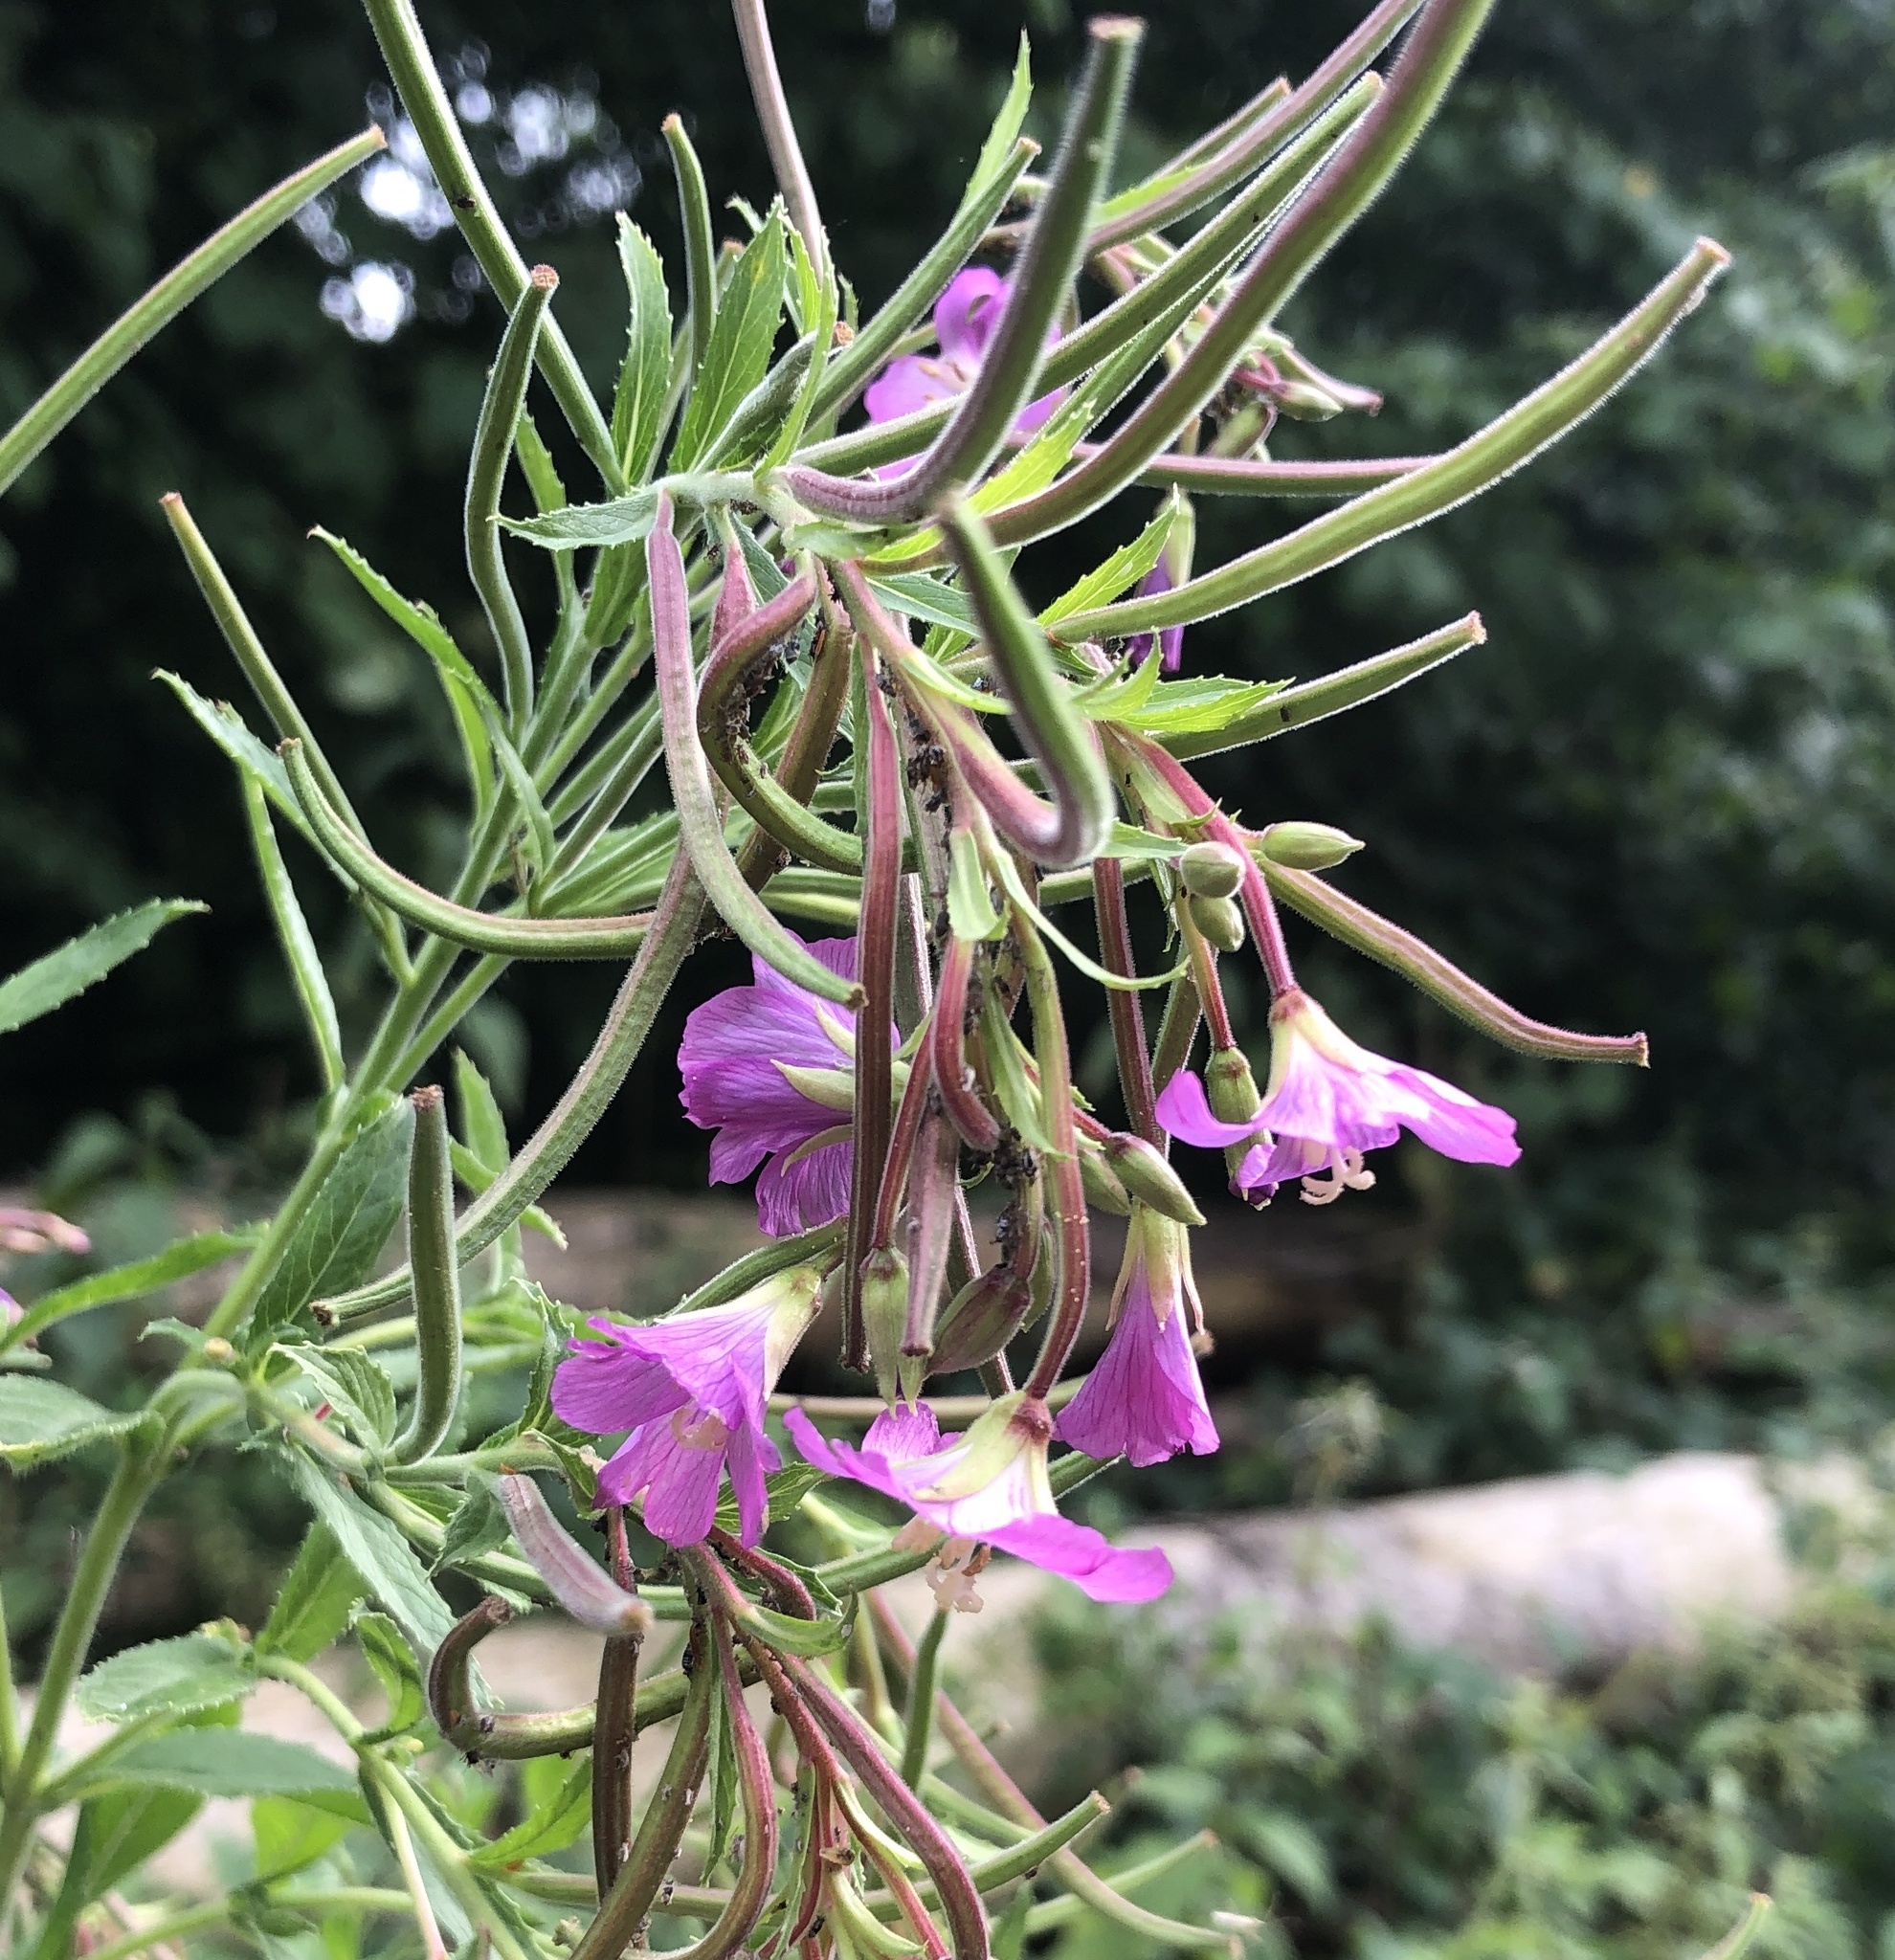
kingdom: Plantae
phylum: Tracheophyta
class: Magnoliopsida
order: Myrtales
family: Onagraceae
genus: Epilobium
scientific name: Epilobium hirsutum
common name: Great willowherb
